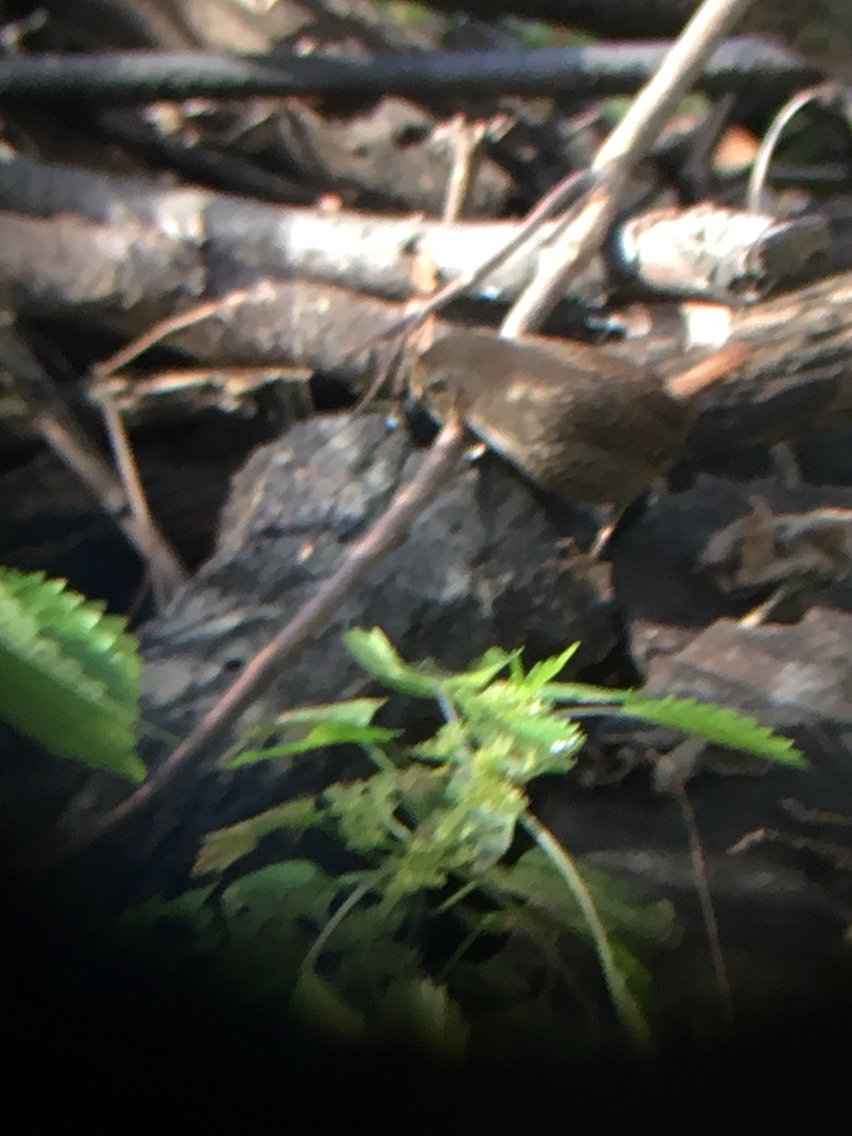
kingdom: Animalia
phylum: Chordata
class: Aves
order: Passeriformes
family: Troglodytidae
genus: Troglodytes
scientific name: Troglodytes hiemalis
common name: Winter wren
